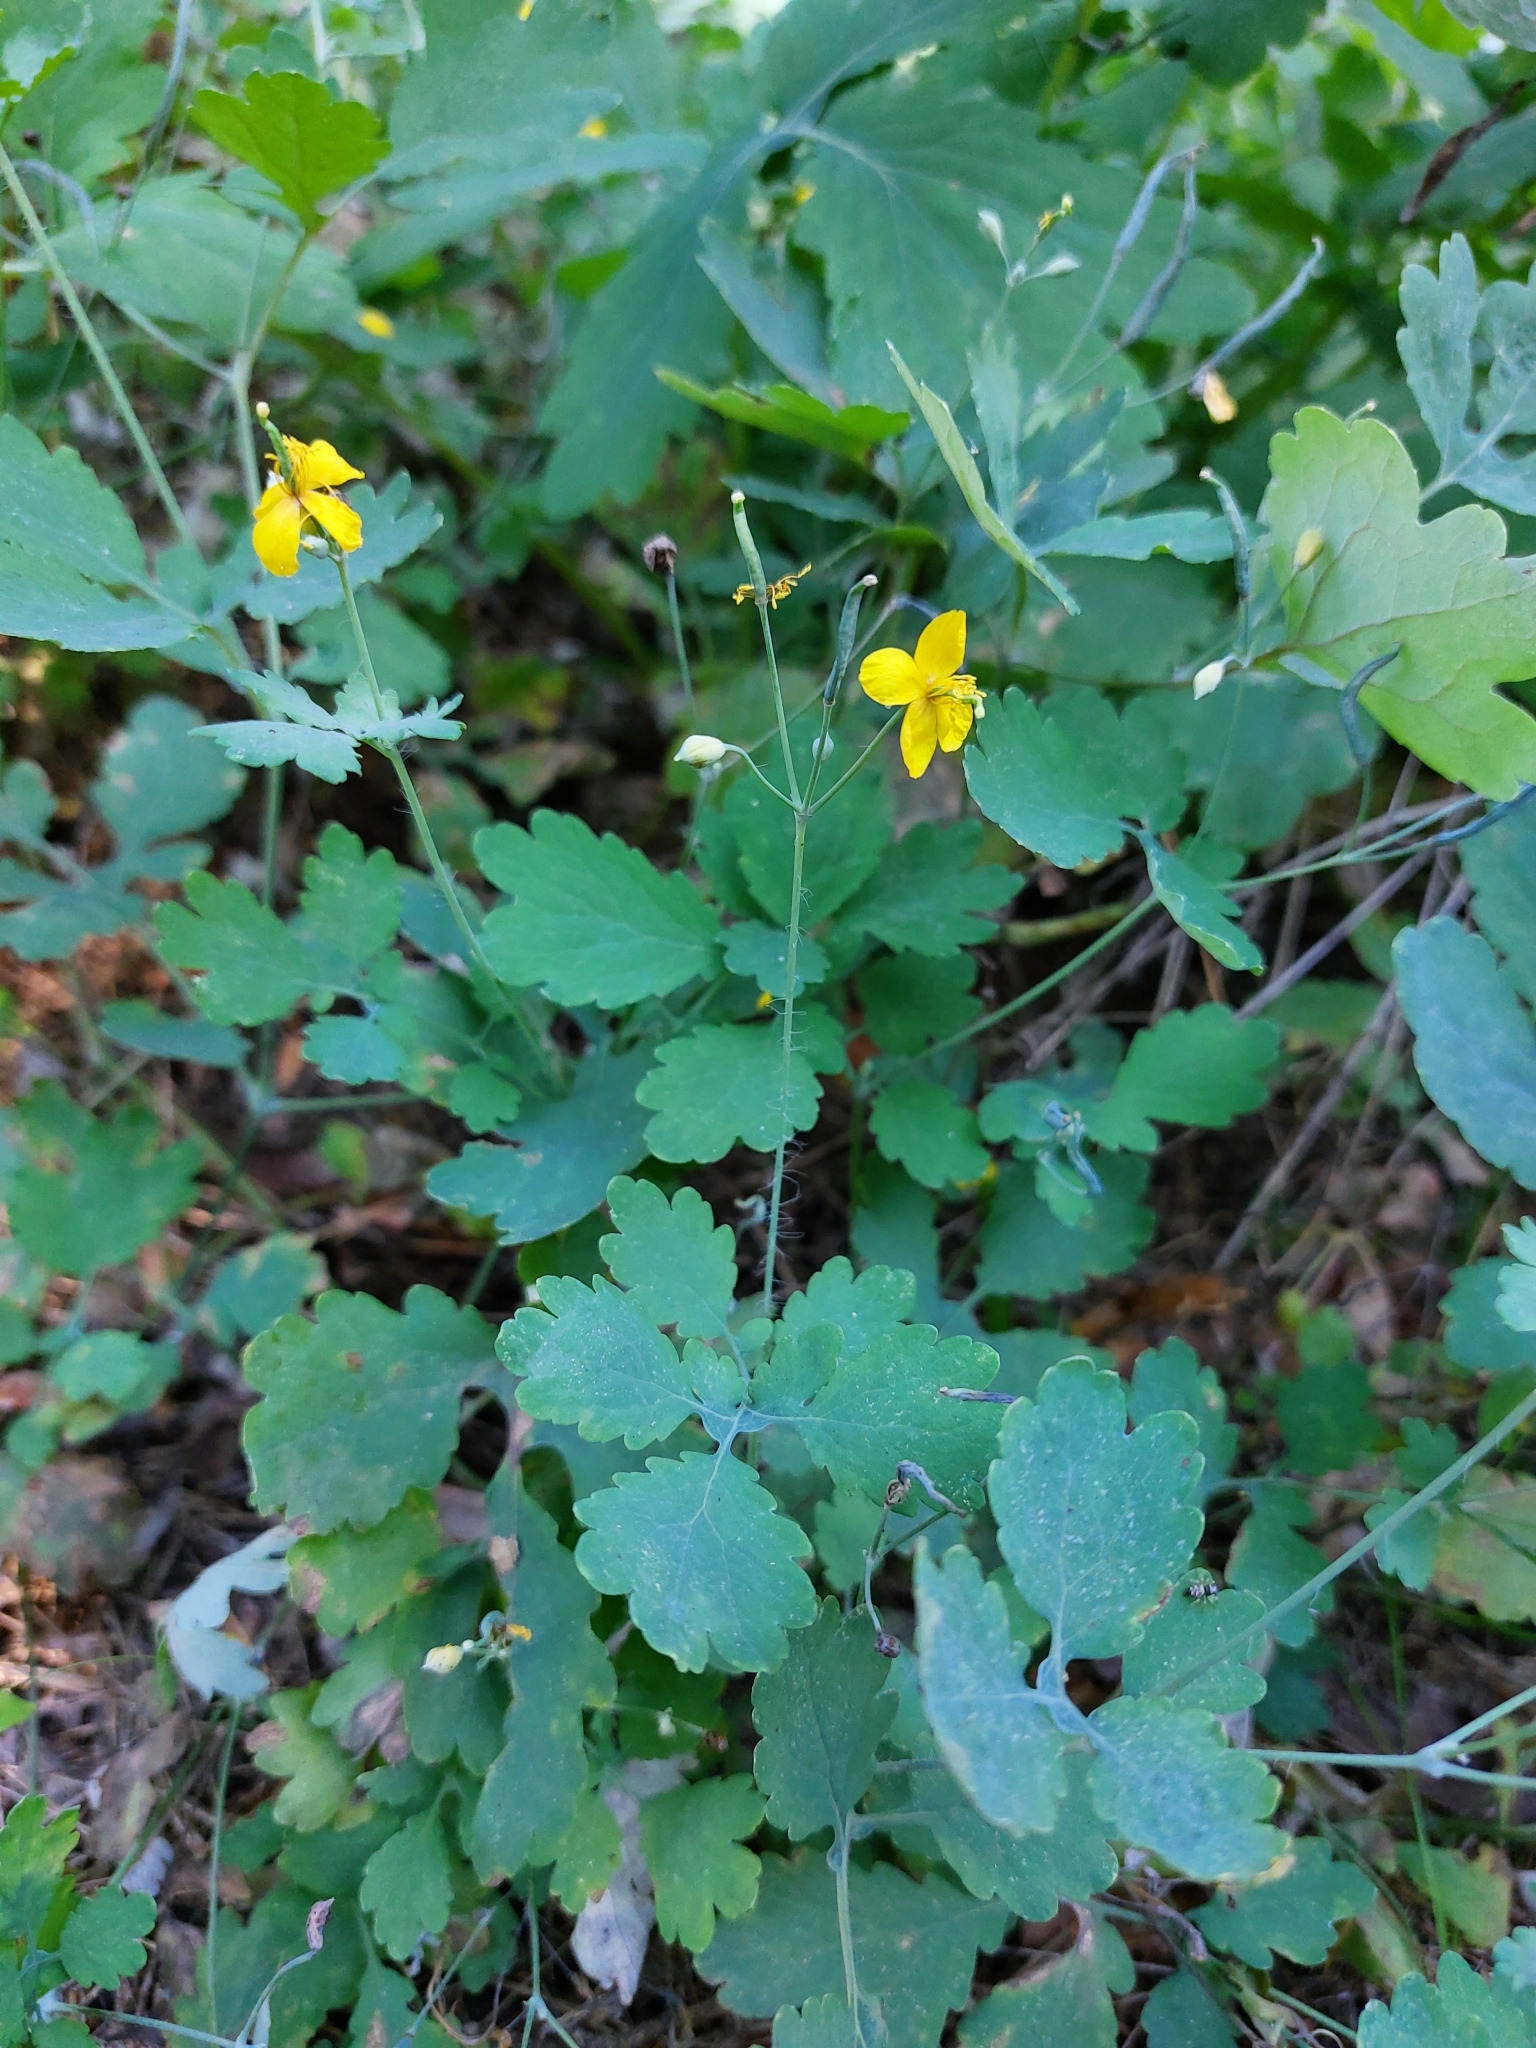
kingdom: Plantae
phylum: Tracheophyta
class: Magnoliopsida
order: Ranunculales
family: Papaveraceae
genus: Chelidonium
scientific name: Chelidonium majus
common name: Greater celandine
